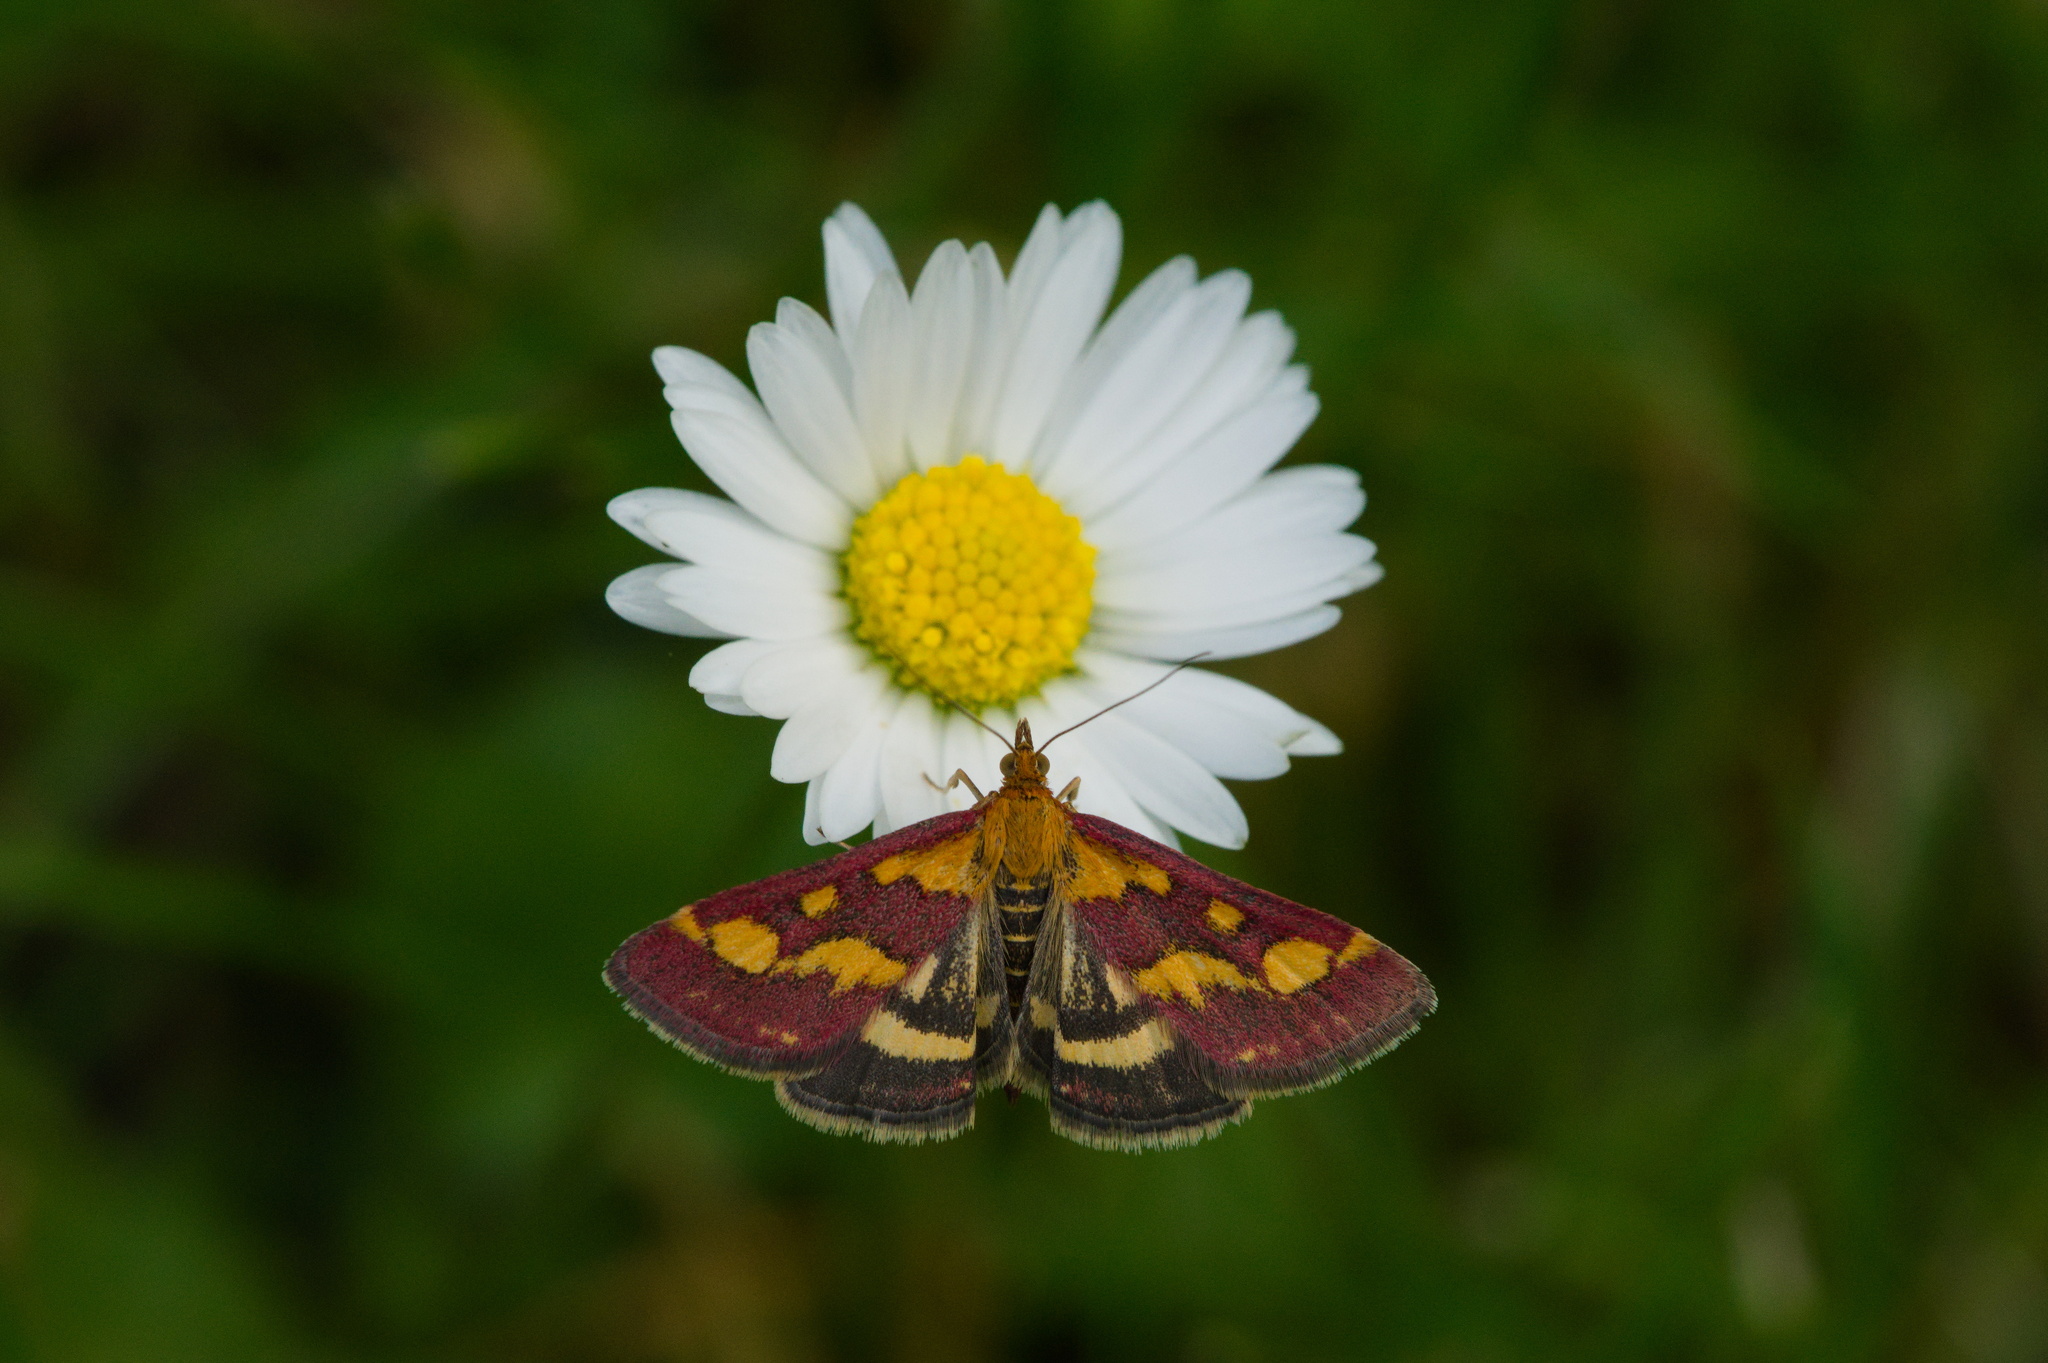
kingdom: Animalia
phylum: Arthropoda
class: Insecta
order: Lepidoptera
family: Crambidae
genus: Pyrausta
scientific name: Pyrausta purpuralis
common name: Common purple & gold
